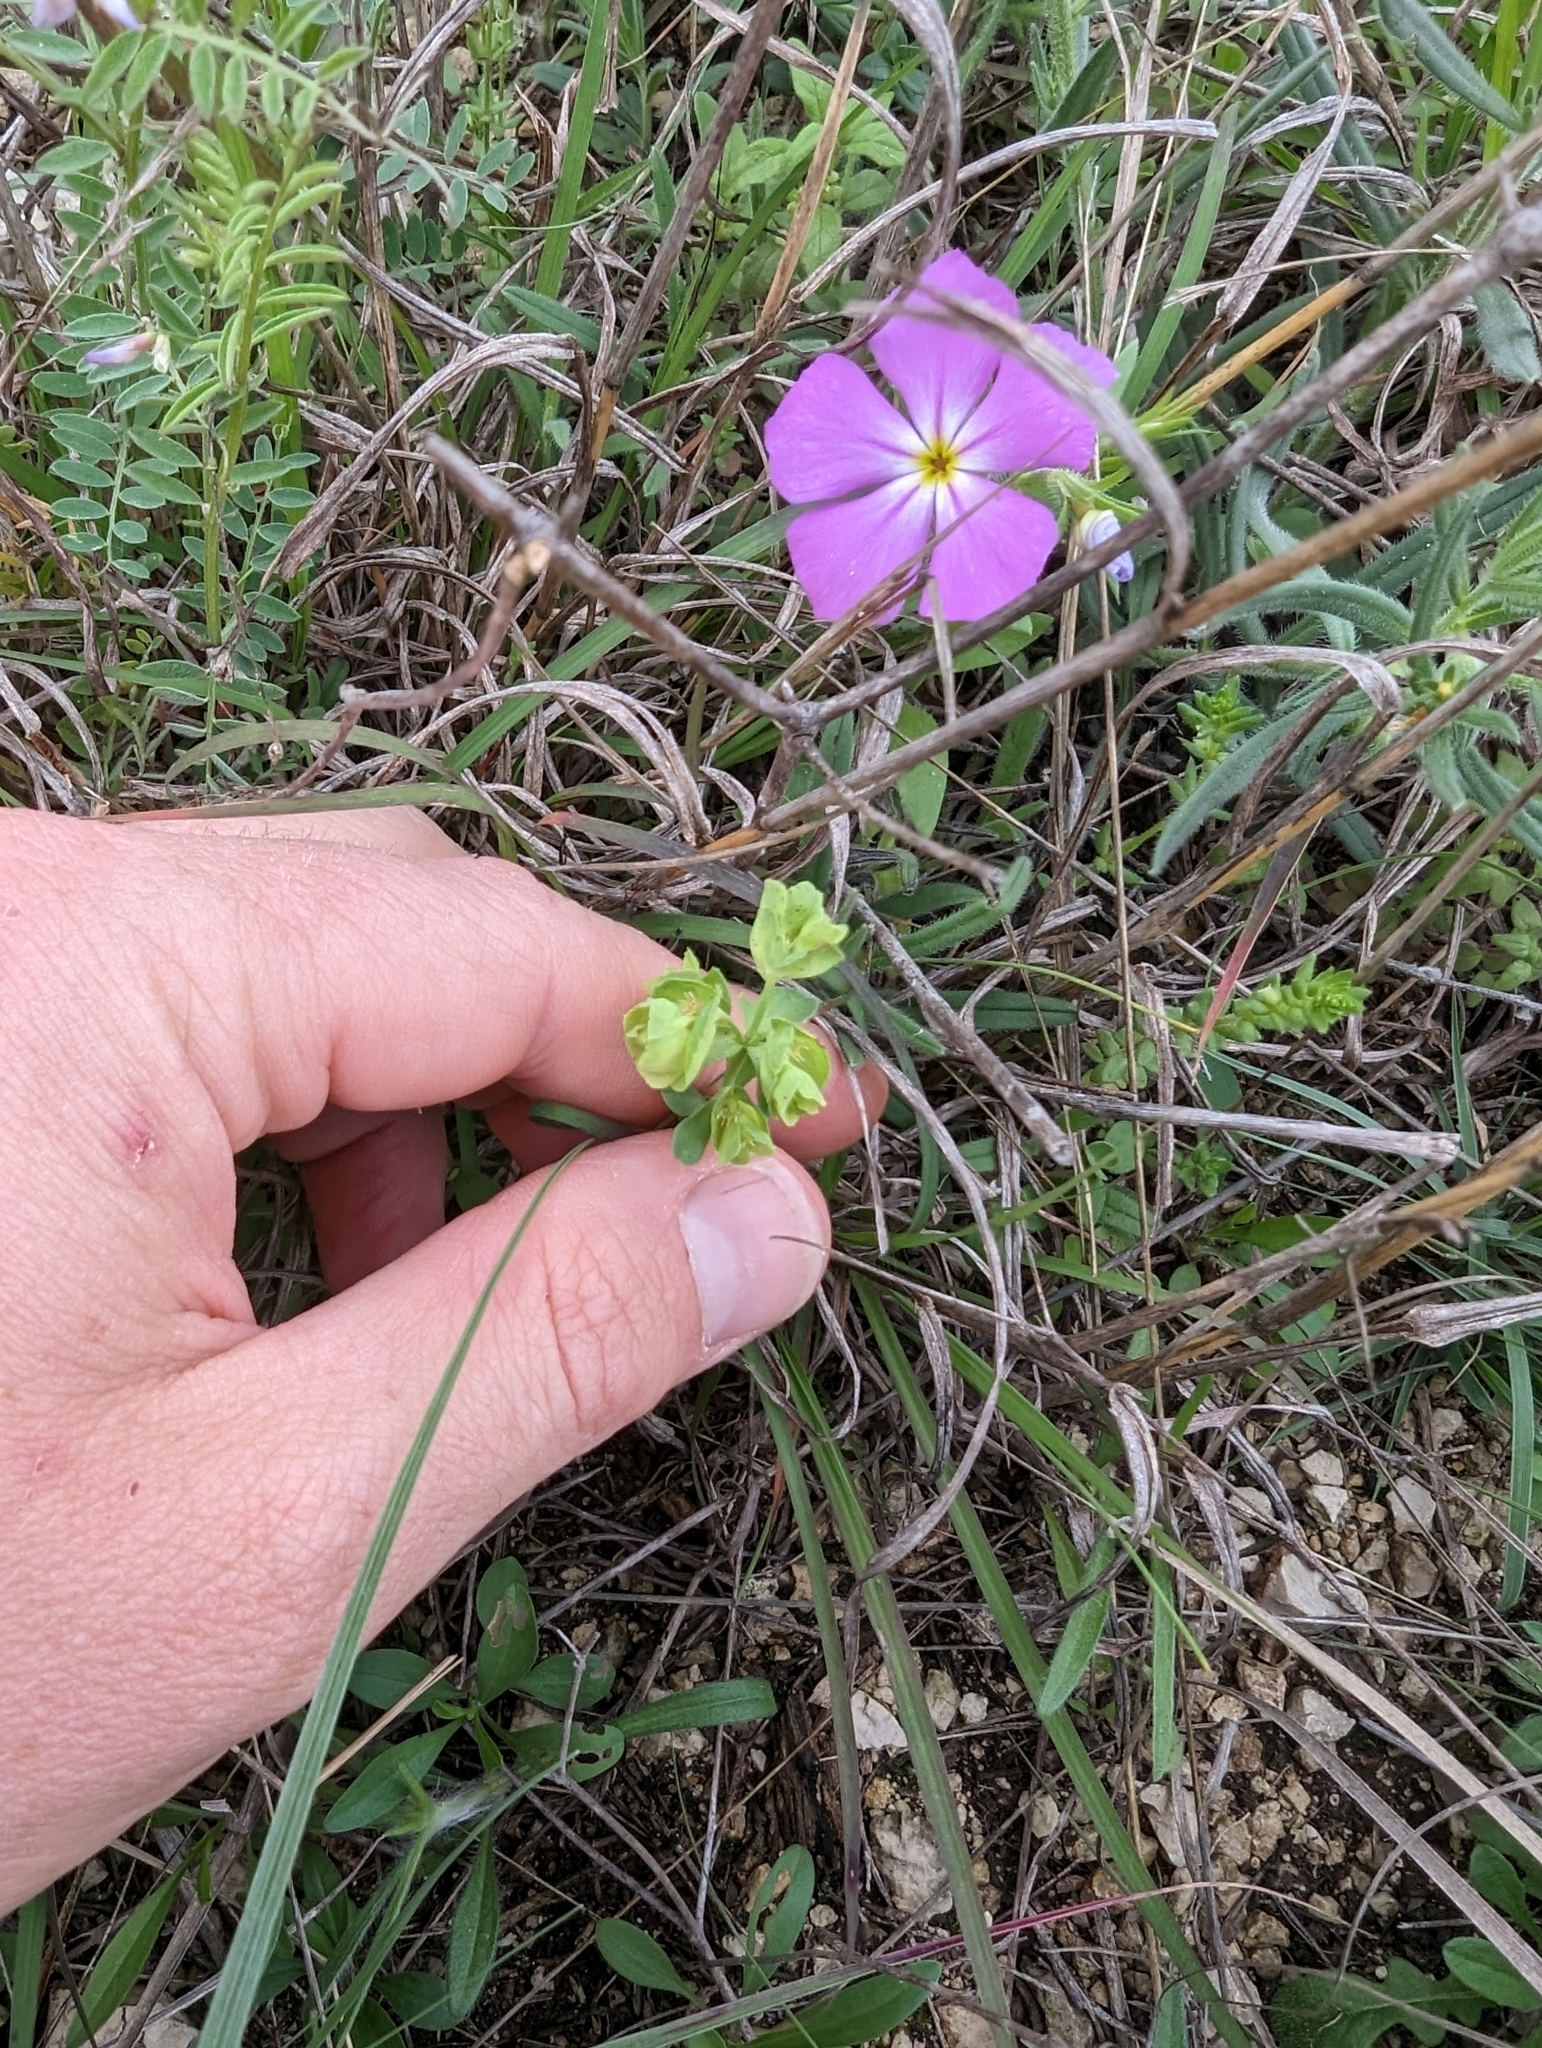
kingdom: Plantae
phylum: Tracheophyta
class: Magnoliopsida
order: Malpighiales
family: Euphorbiaceae
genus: Euphorbia
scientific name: Euphorbia longicruris
